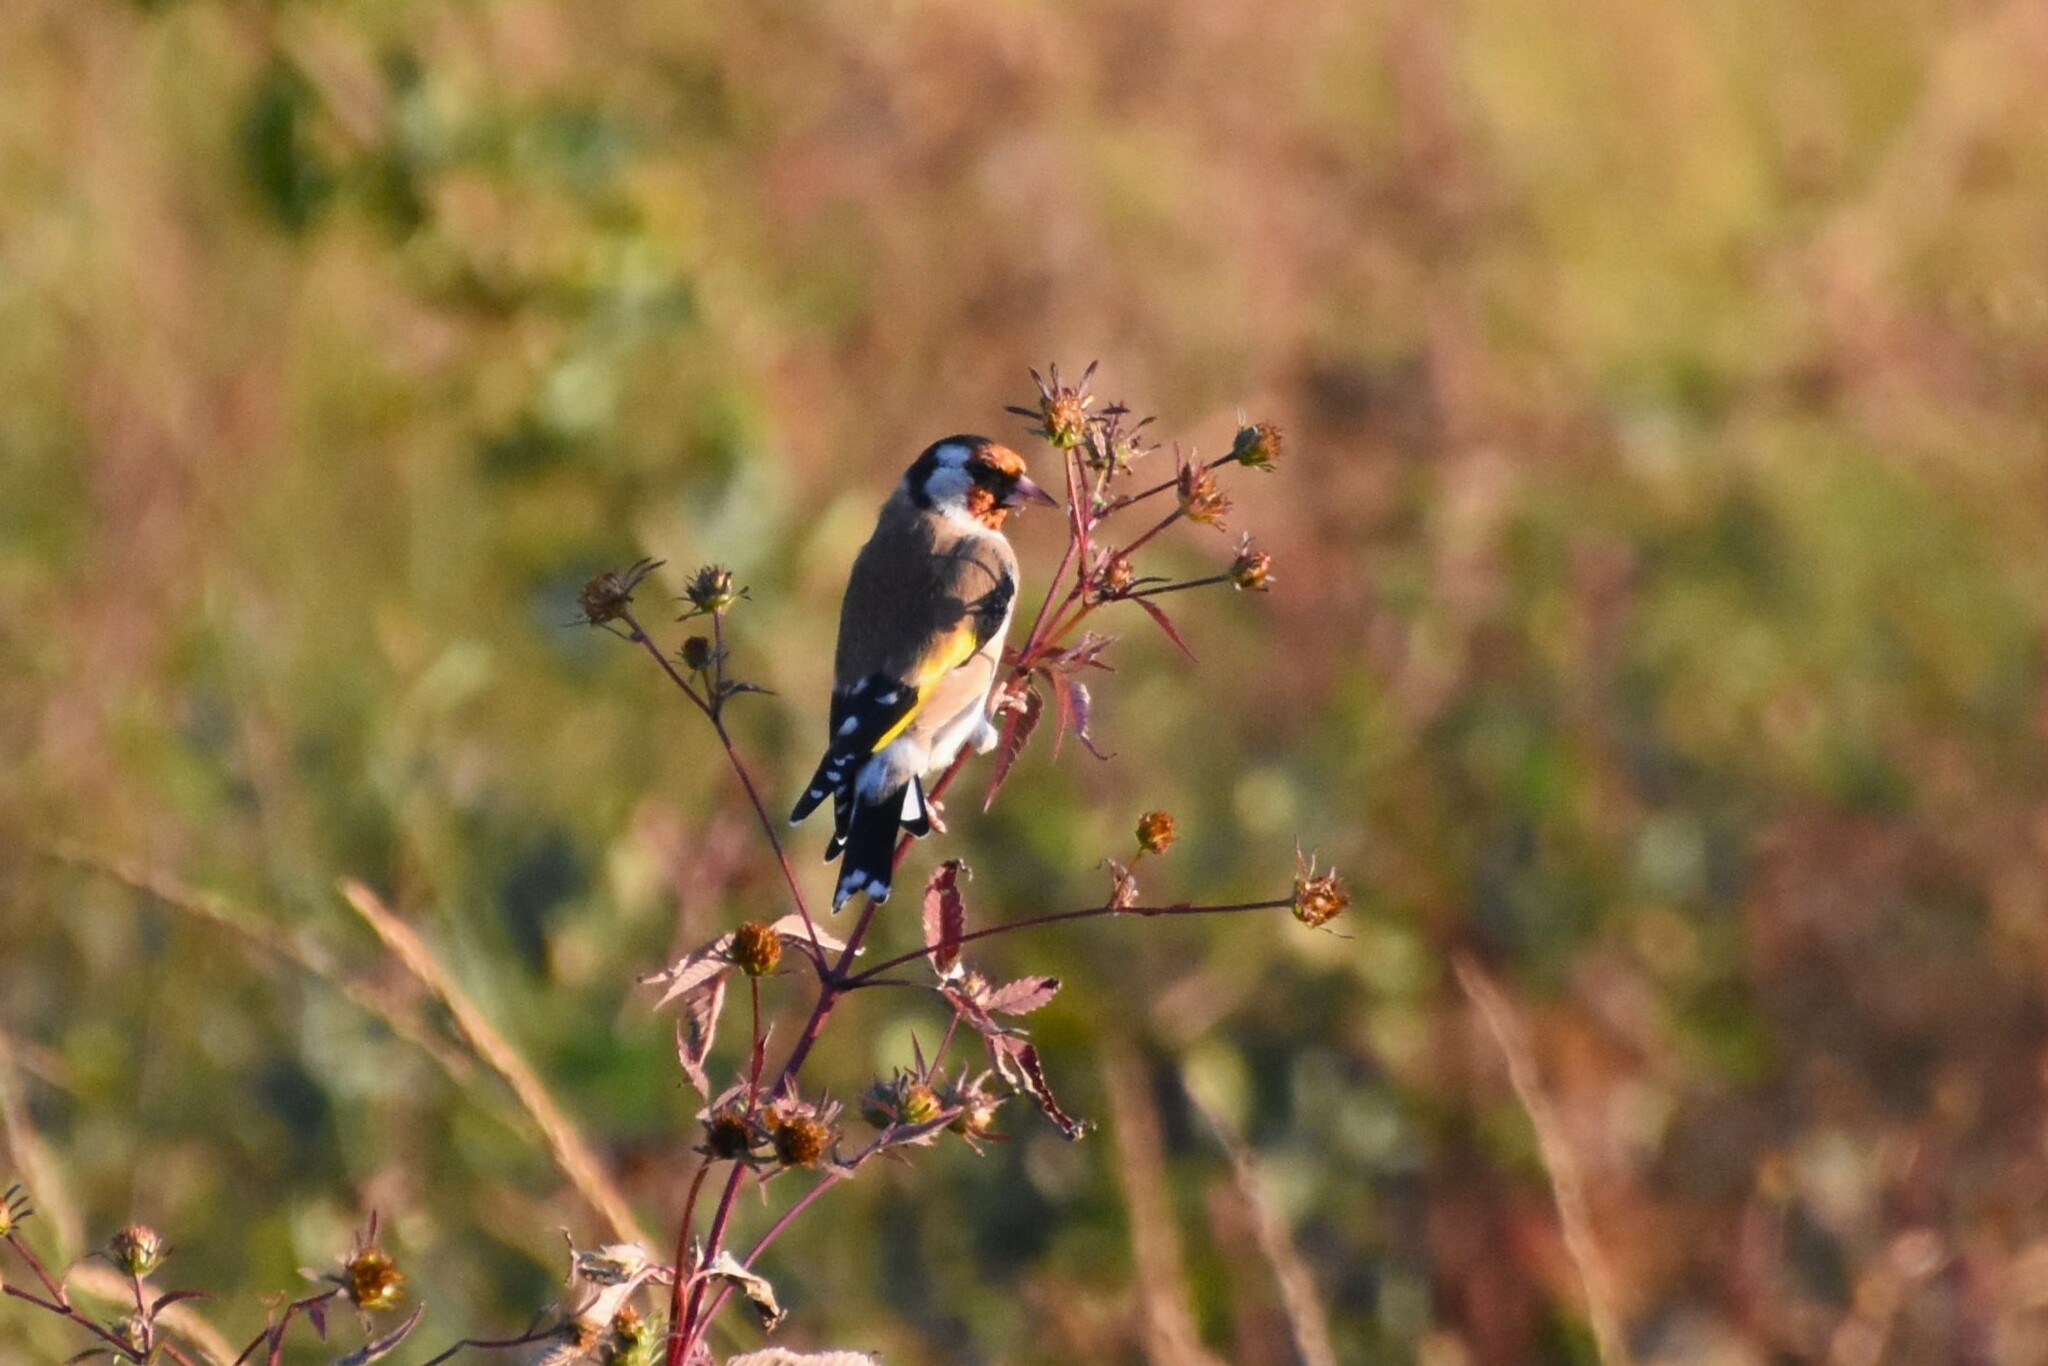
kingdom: Animalia
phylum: Chordata
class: Aves
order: Passeriformes
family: Fringillidae
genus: Carduelis
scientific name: Carduelis carduelis
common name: European goldfinch
